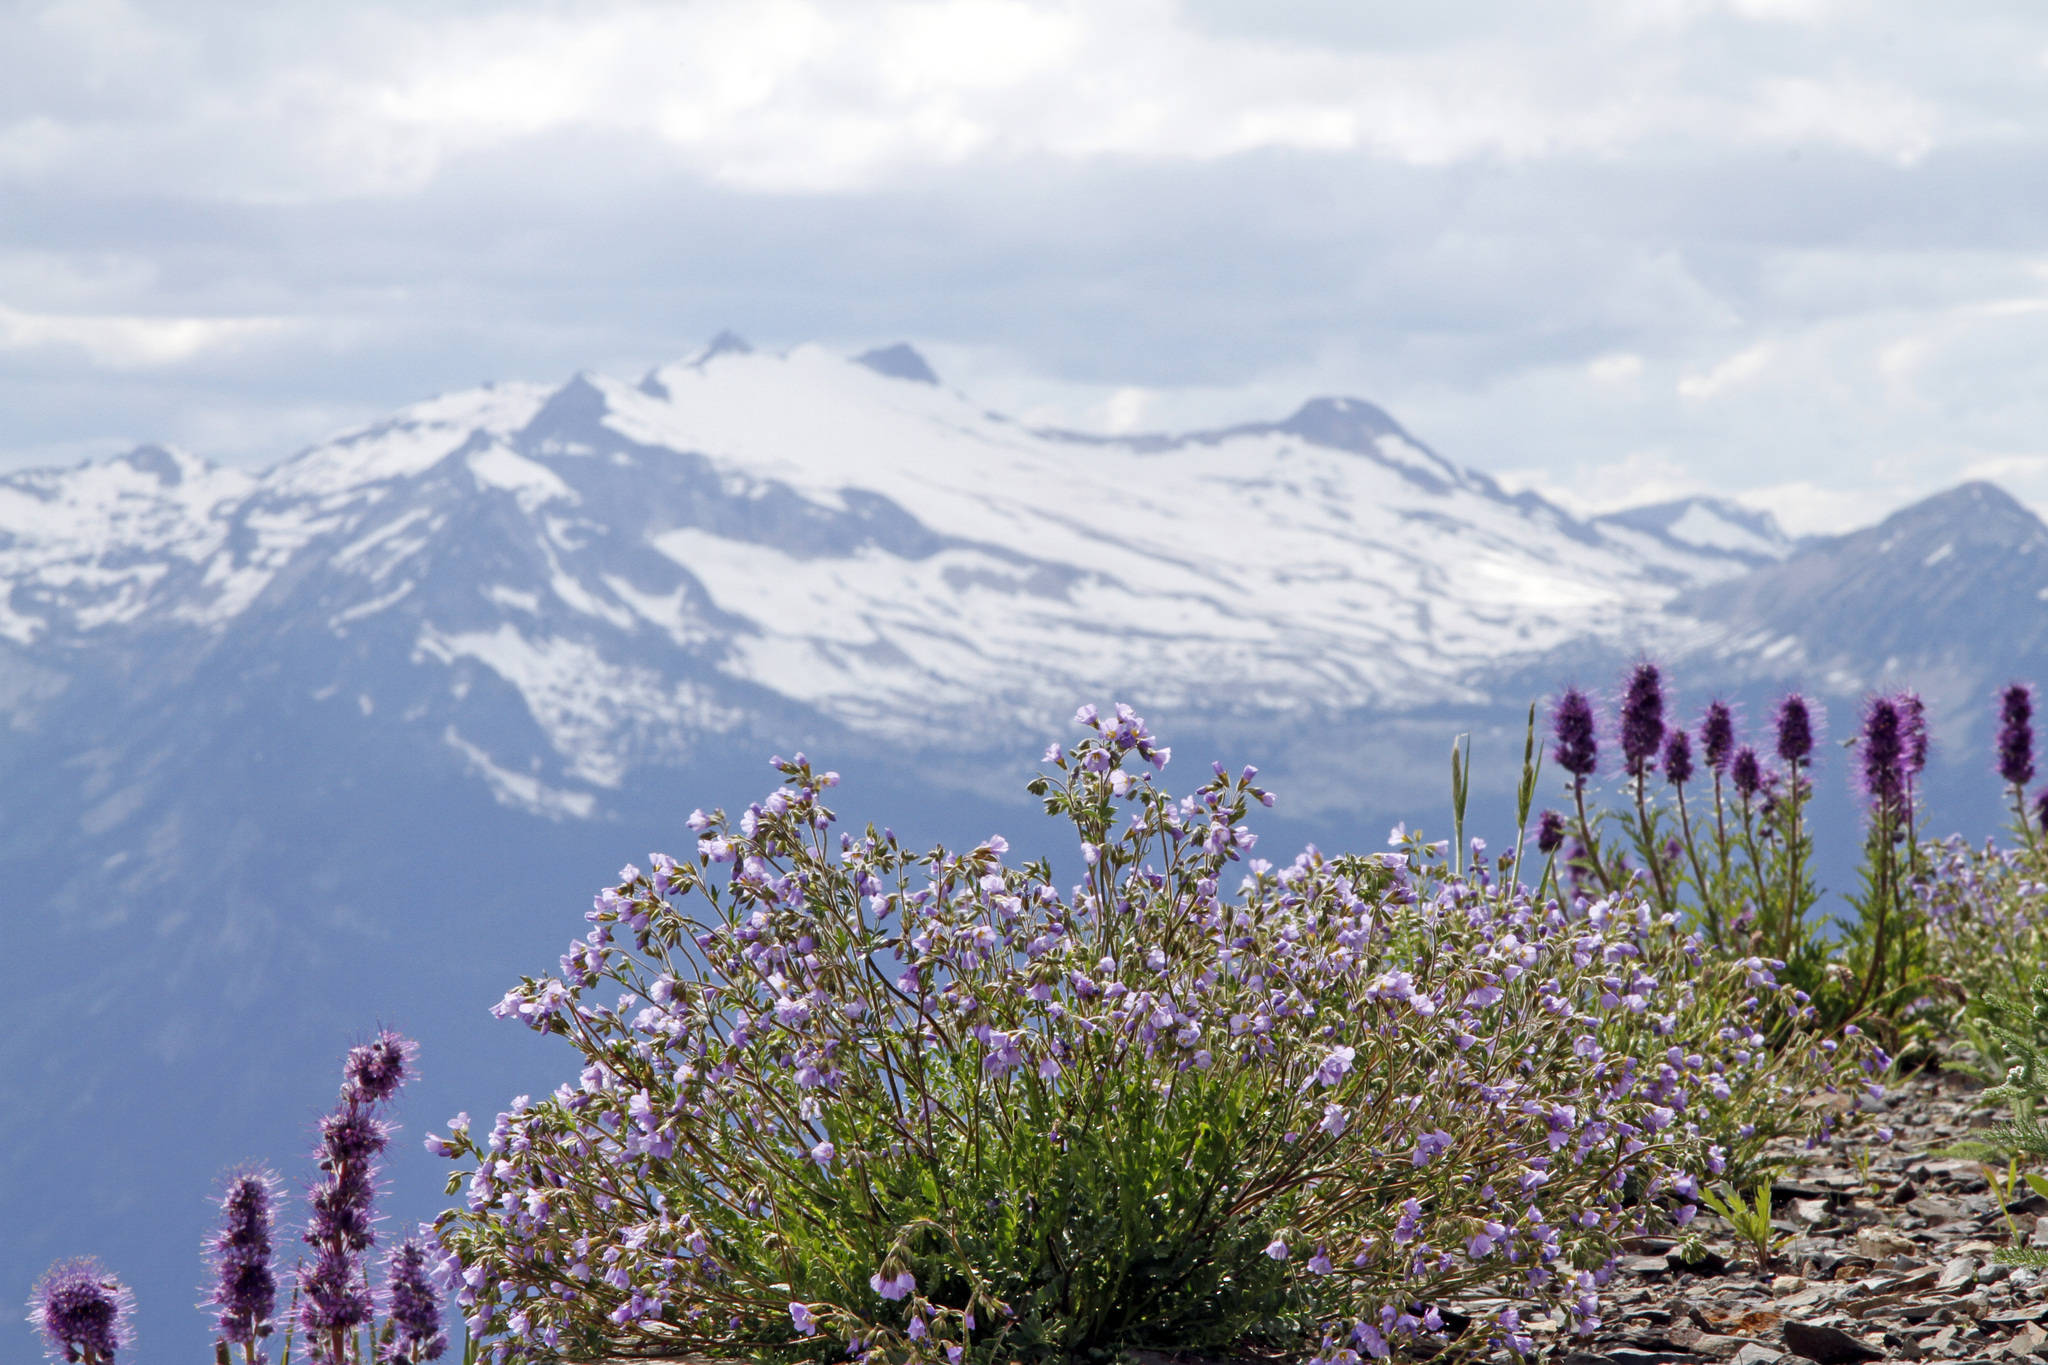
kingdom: Plantae
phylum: Tracheophyta
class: Magnoliopsida
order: Ericales
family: Polemoniaceae
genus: Polemonium
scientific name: Polemonium pulcherrimum
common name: Short jacob's-ladder
